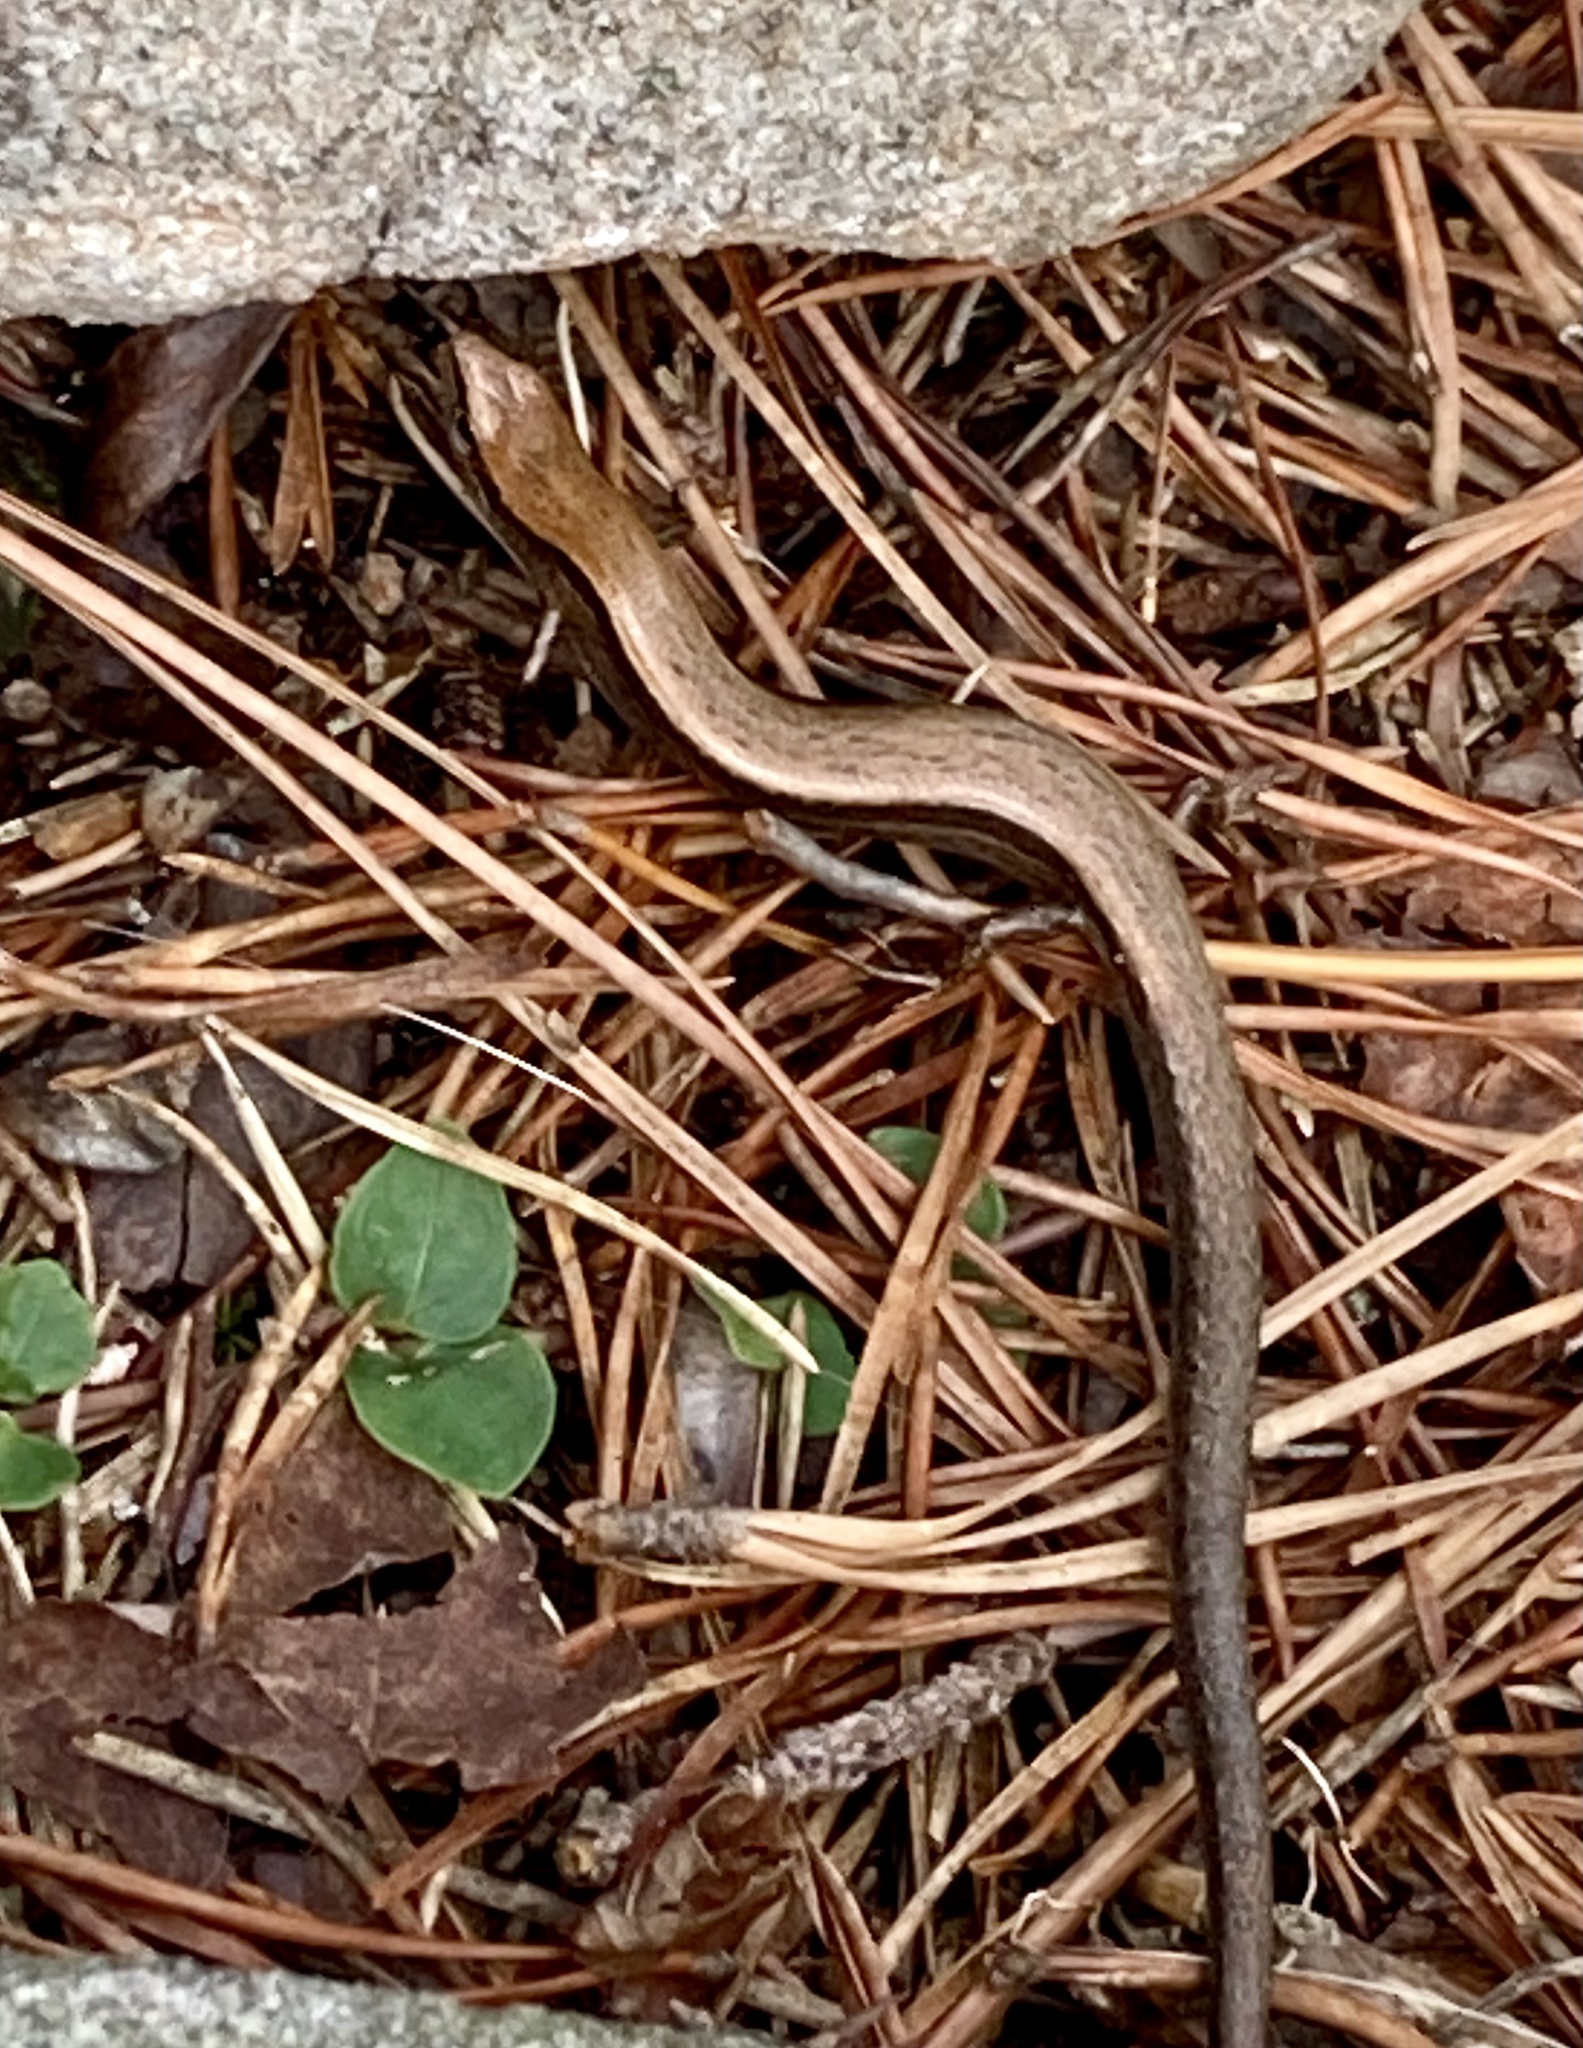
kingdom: Animalia
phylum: Chordata
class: Squamata
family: Scincidae
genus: Scincella
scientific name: Scincella lateralis
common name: Ground skink
